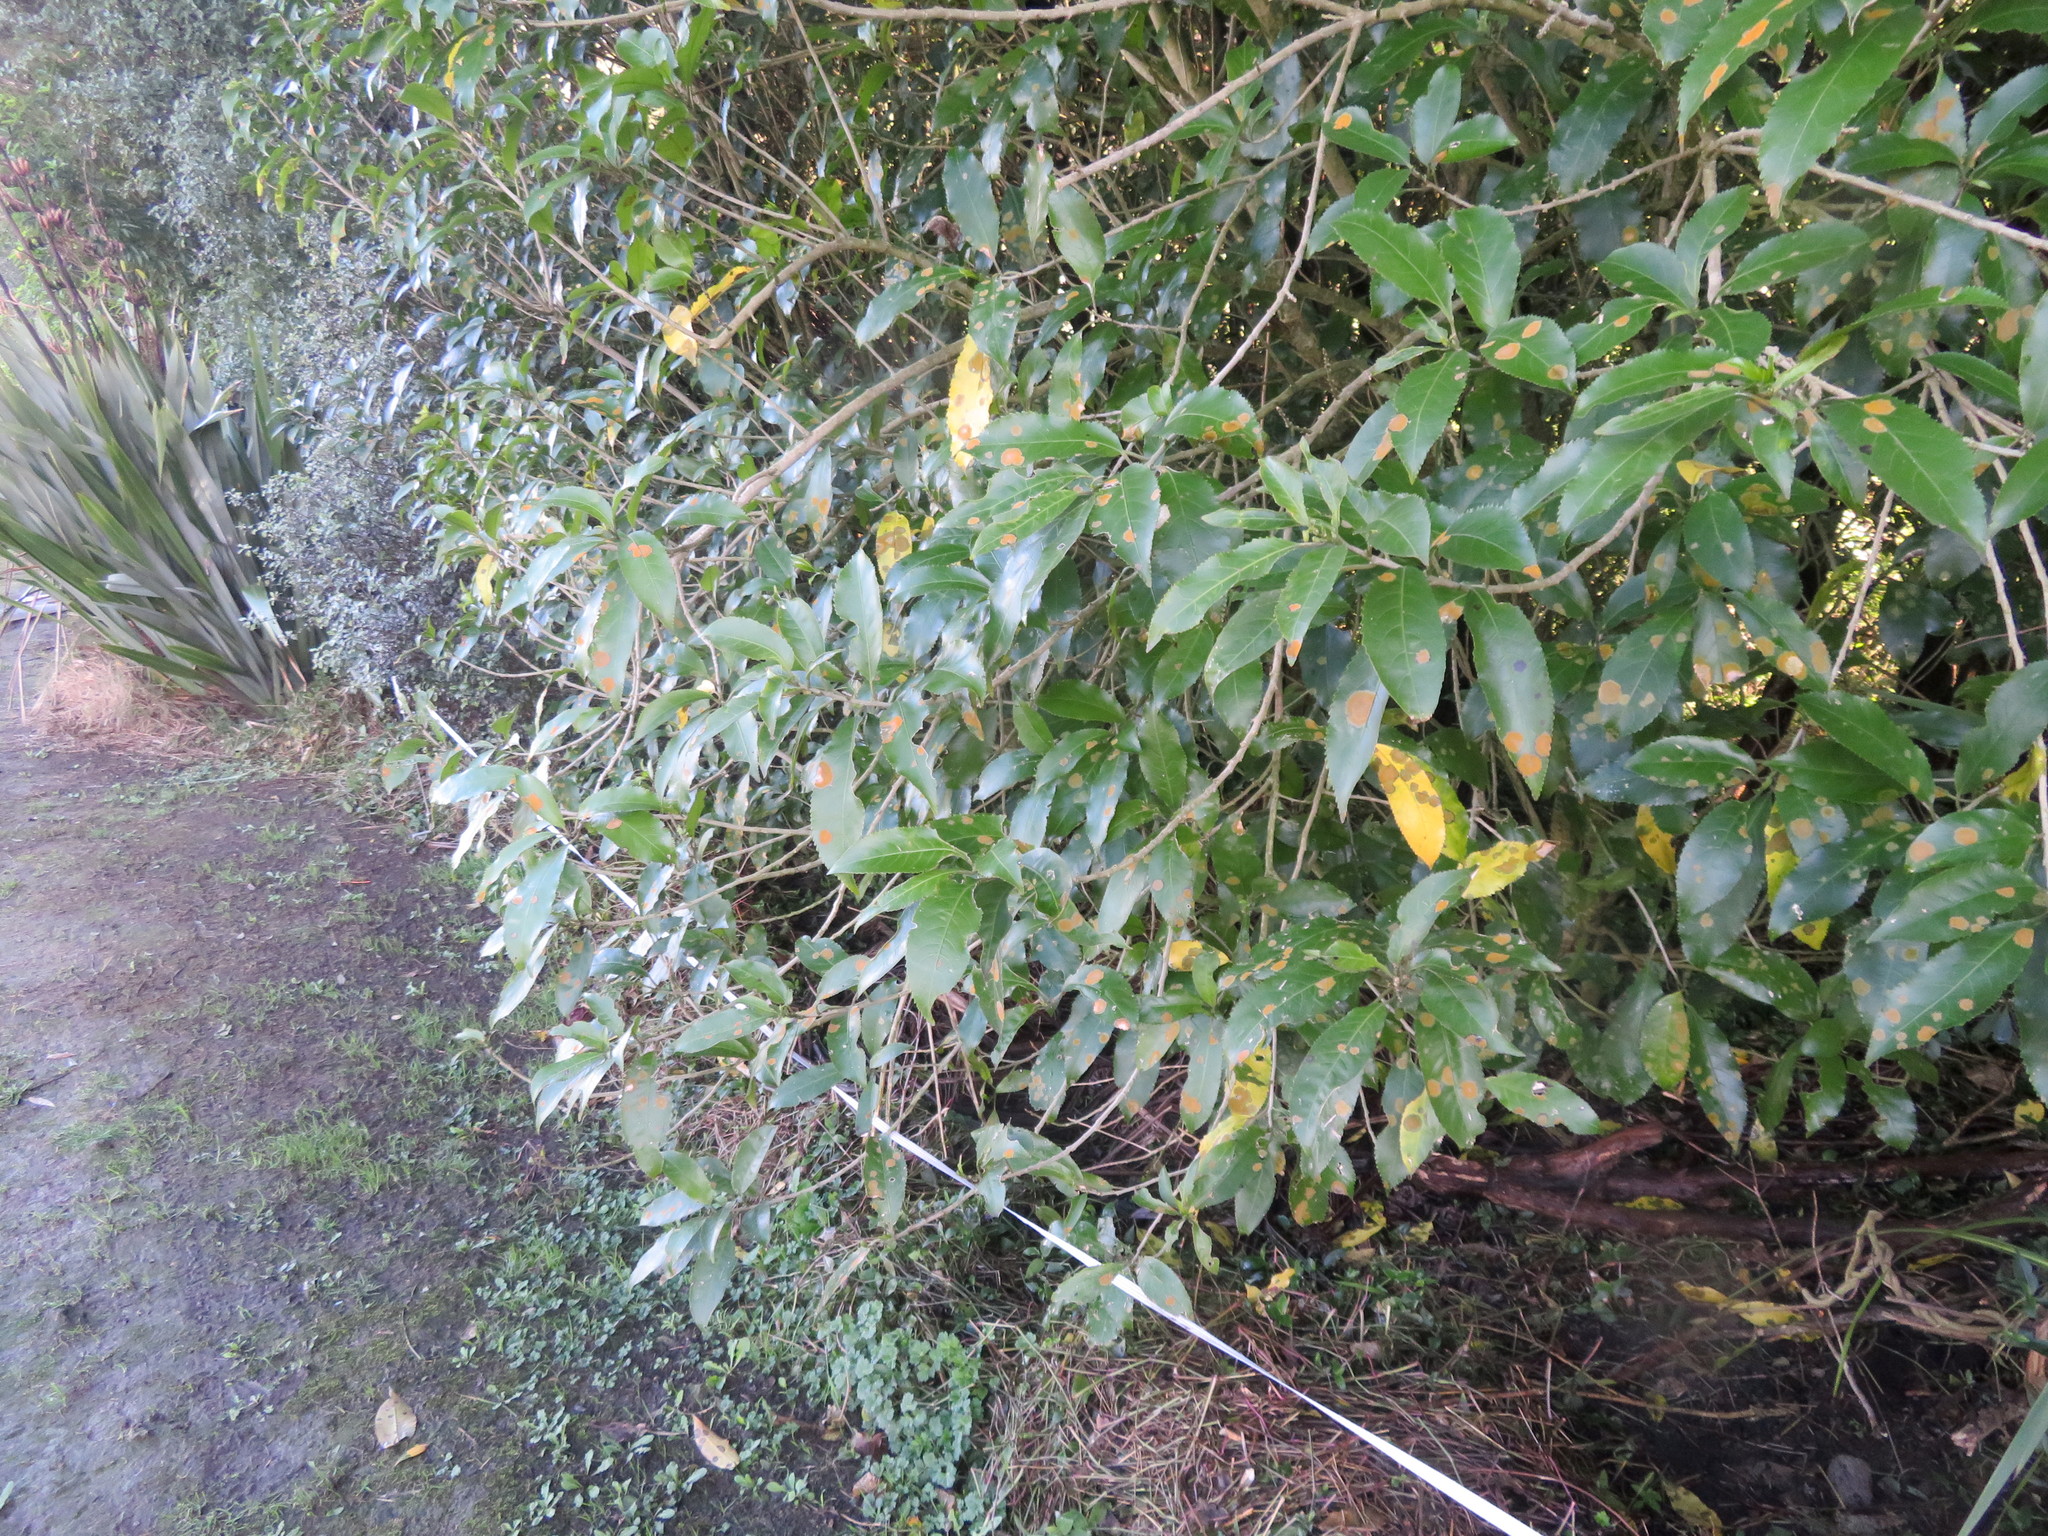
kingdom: Plantae
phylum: Tracheophyta
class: Magnoliopsida
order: Malpighiales
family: Violaceae
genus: Melicytus
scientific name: Melicytus ramiflorus
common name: Mahoe
